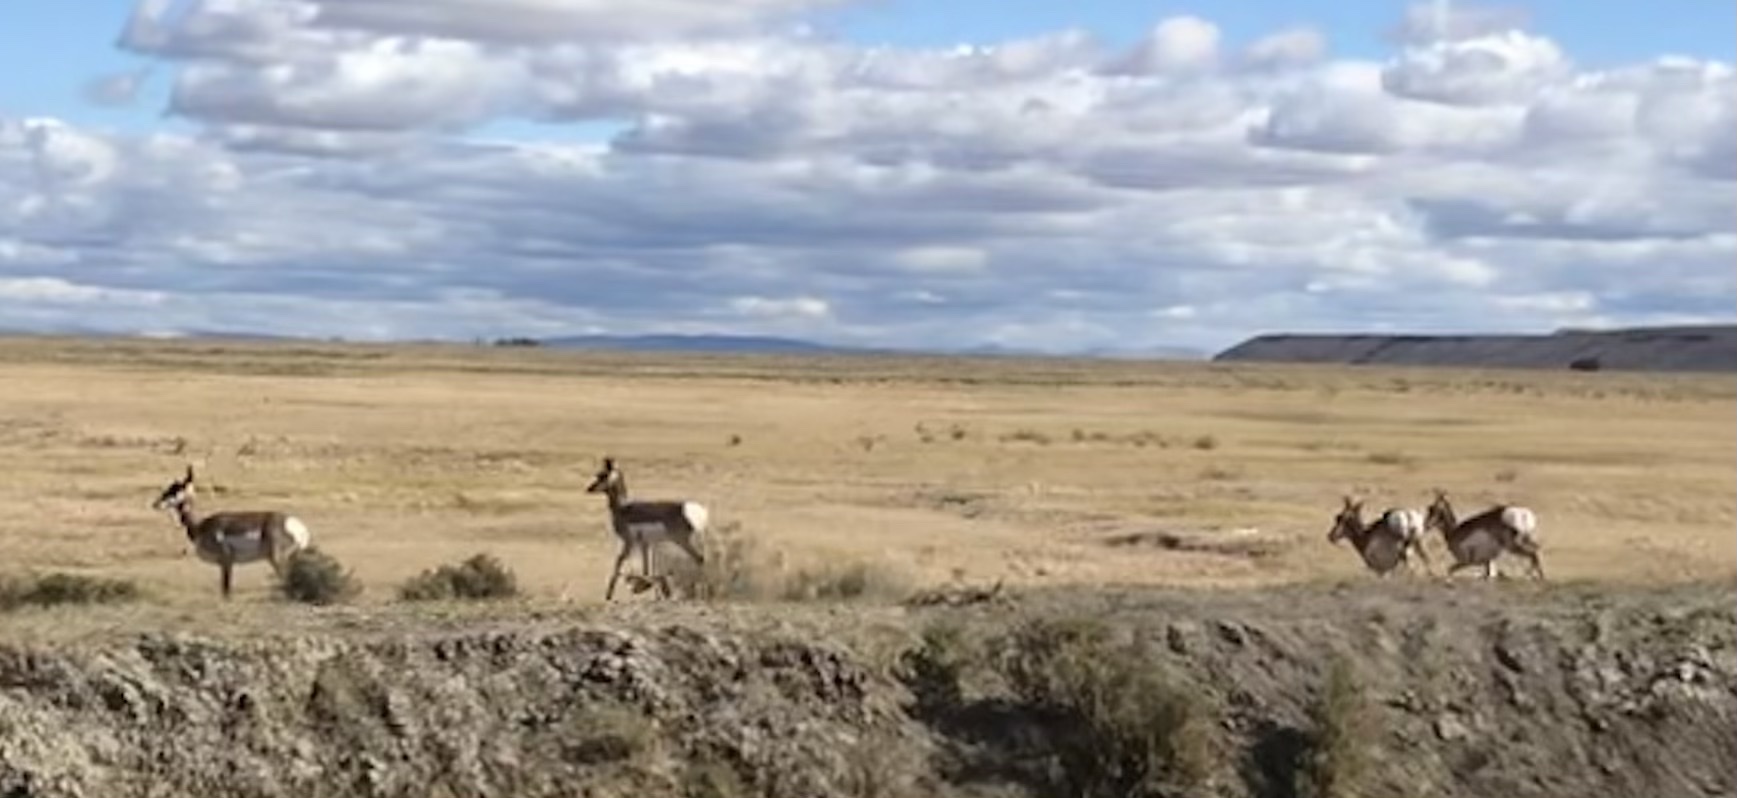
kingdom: Animalia
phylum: Chordata
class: Mammalia
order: Artiodactyla
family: Antilocapridae
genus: Antilocapra
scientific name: Antilocapra americana
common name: Pronghorn
